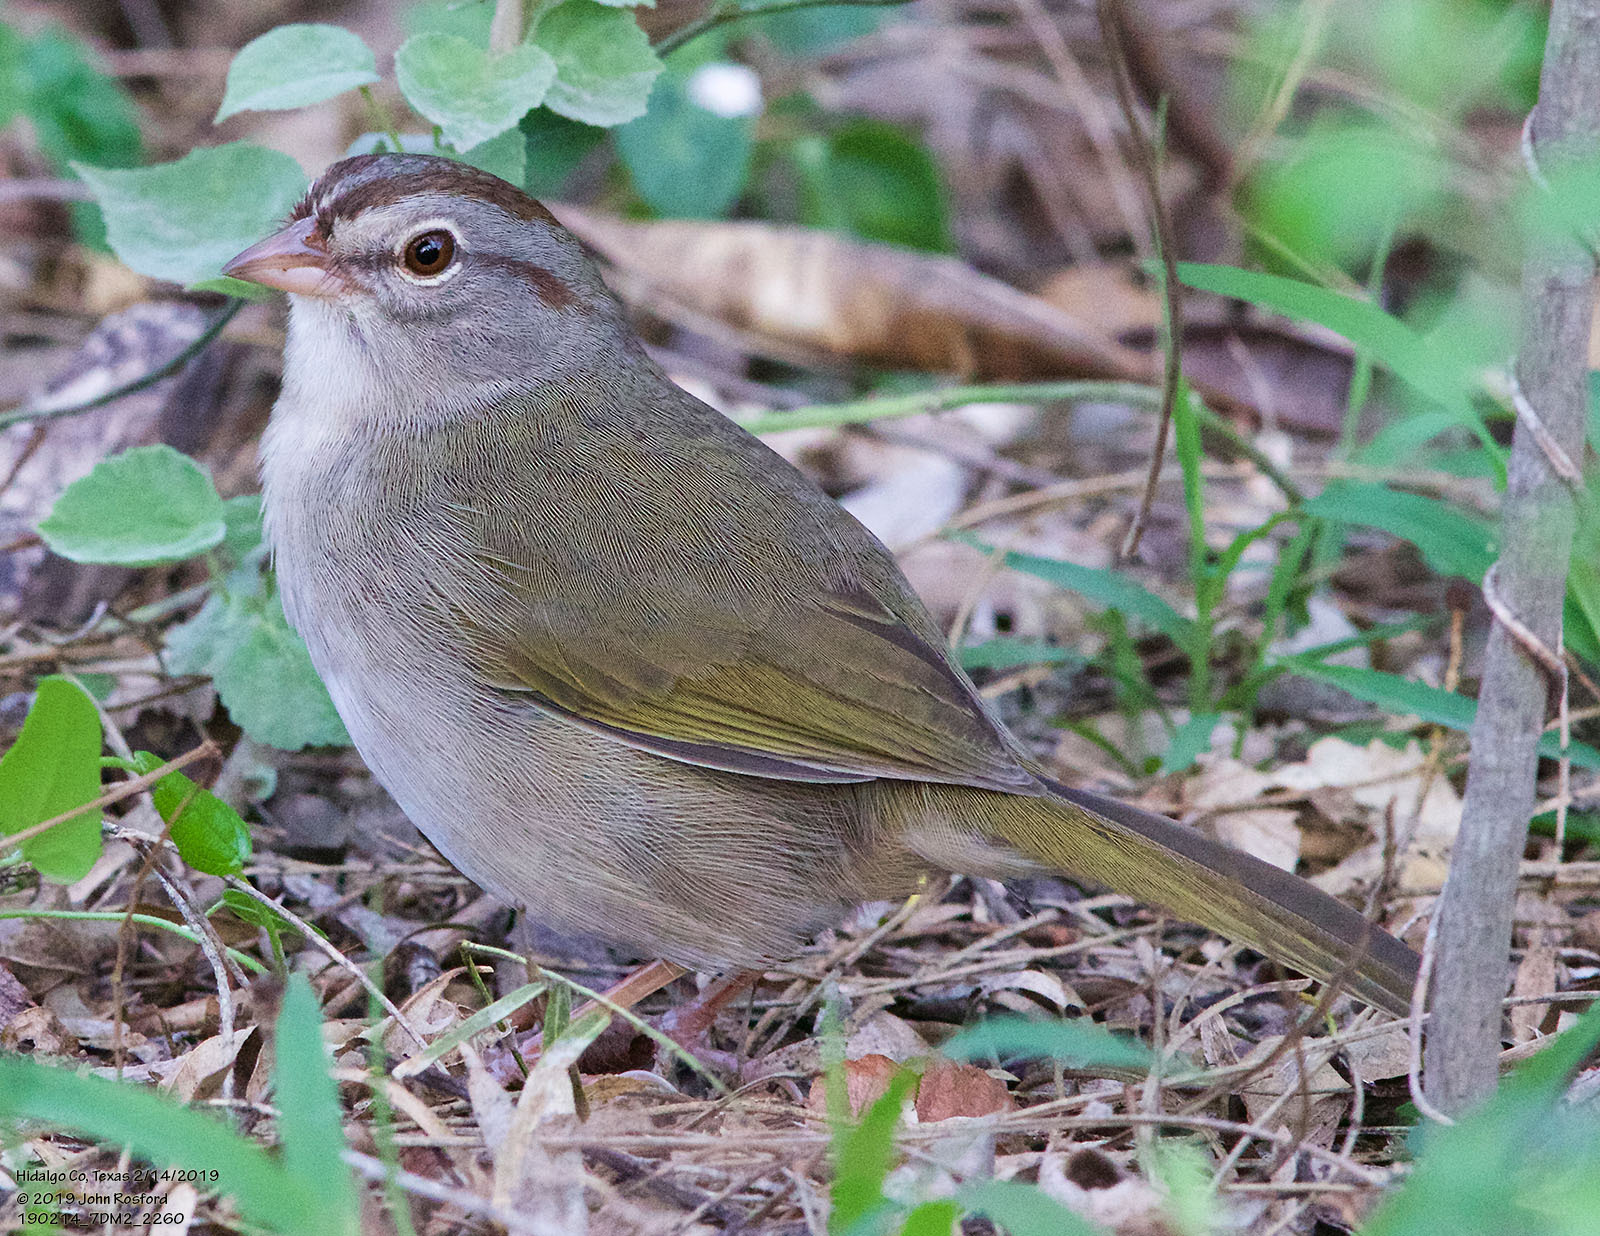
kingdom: Animalia
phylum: Chordata
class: Aves
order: Passeriformes
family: Passerellidae
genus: Arremonops
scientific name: Arremonops rufivirgatus
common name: Olive sparrow
